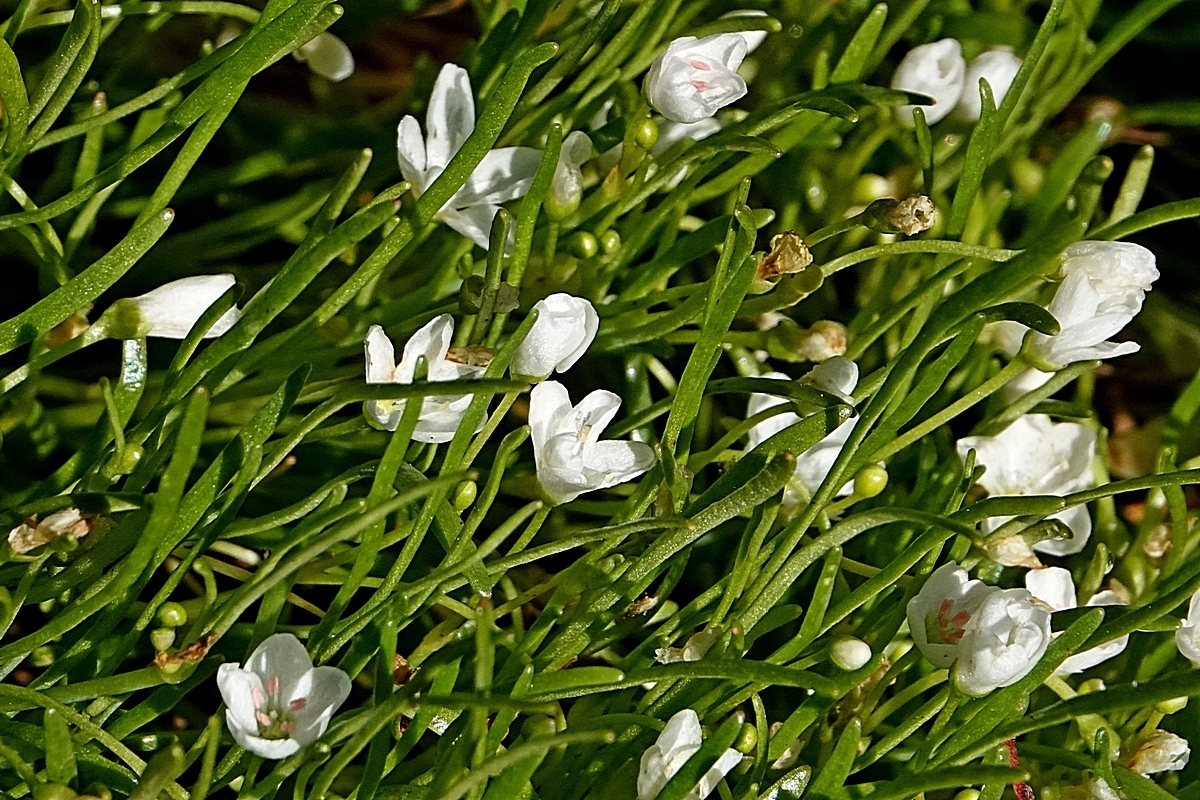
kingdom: Plantae
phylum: Tracheophyta
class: Magnoliopsida
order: Caryophyllales
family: Montiaceae
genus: Montia
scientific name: Montia australasica
